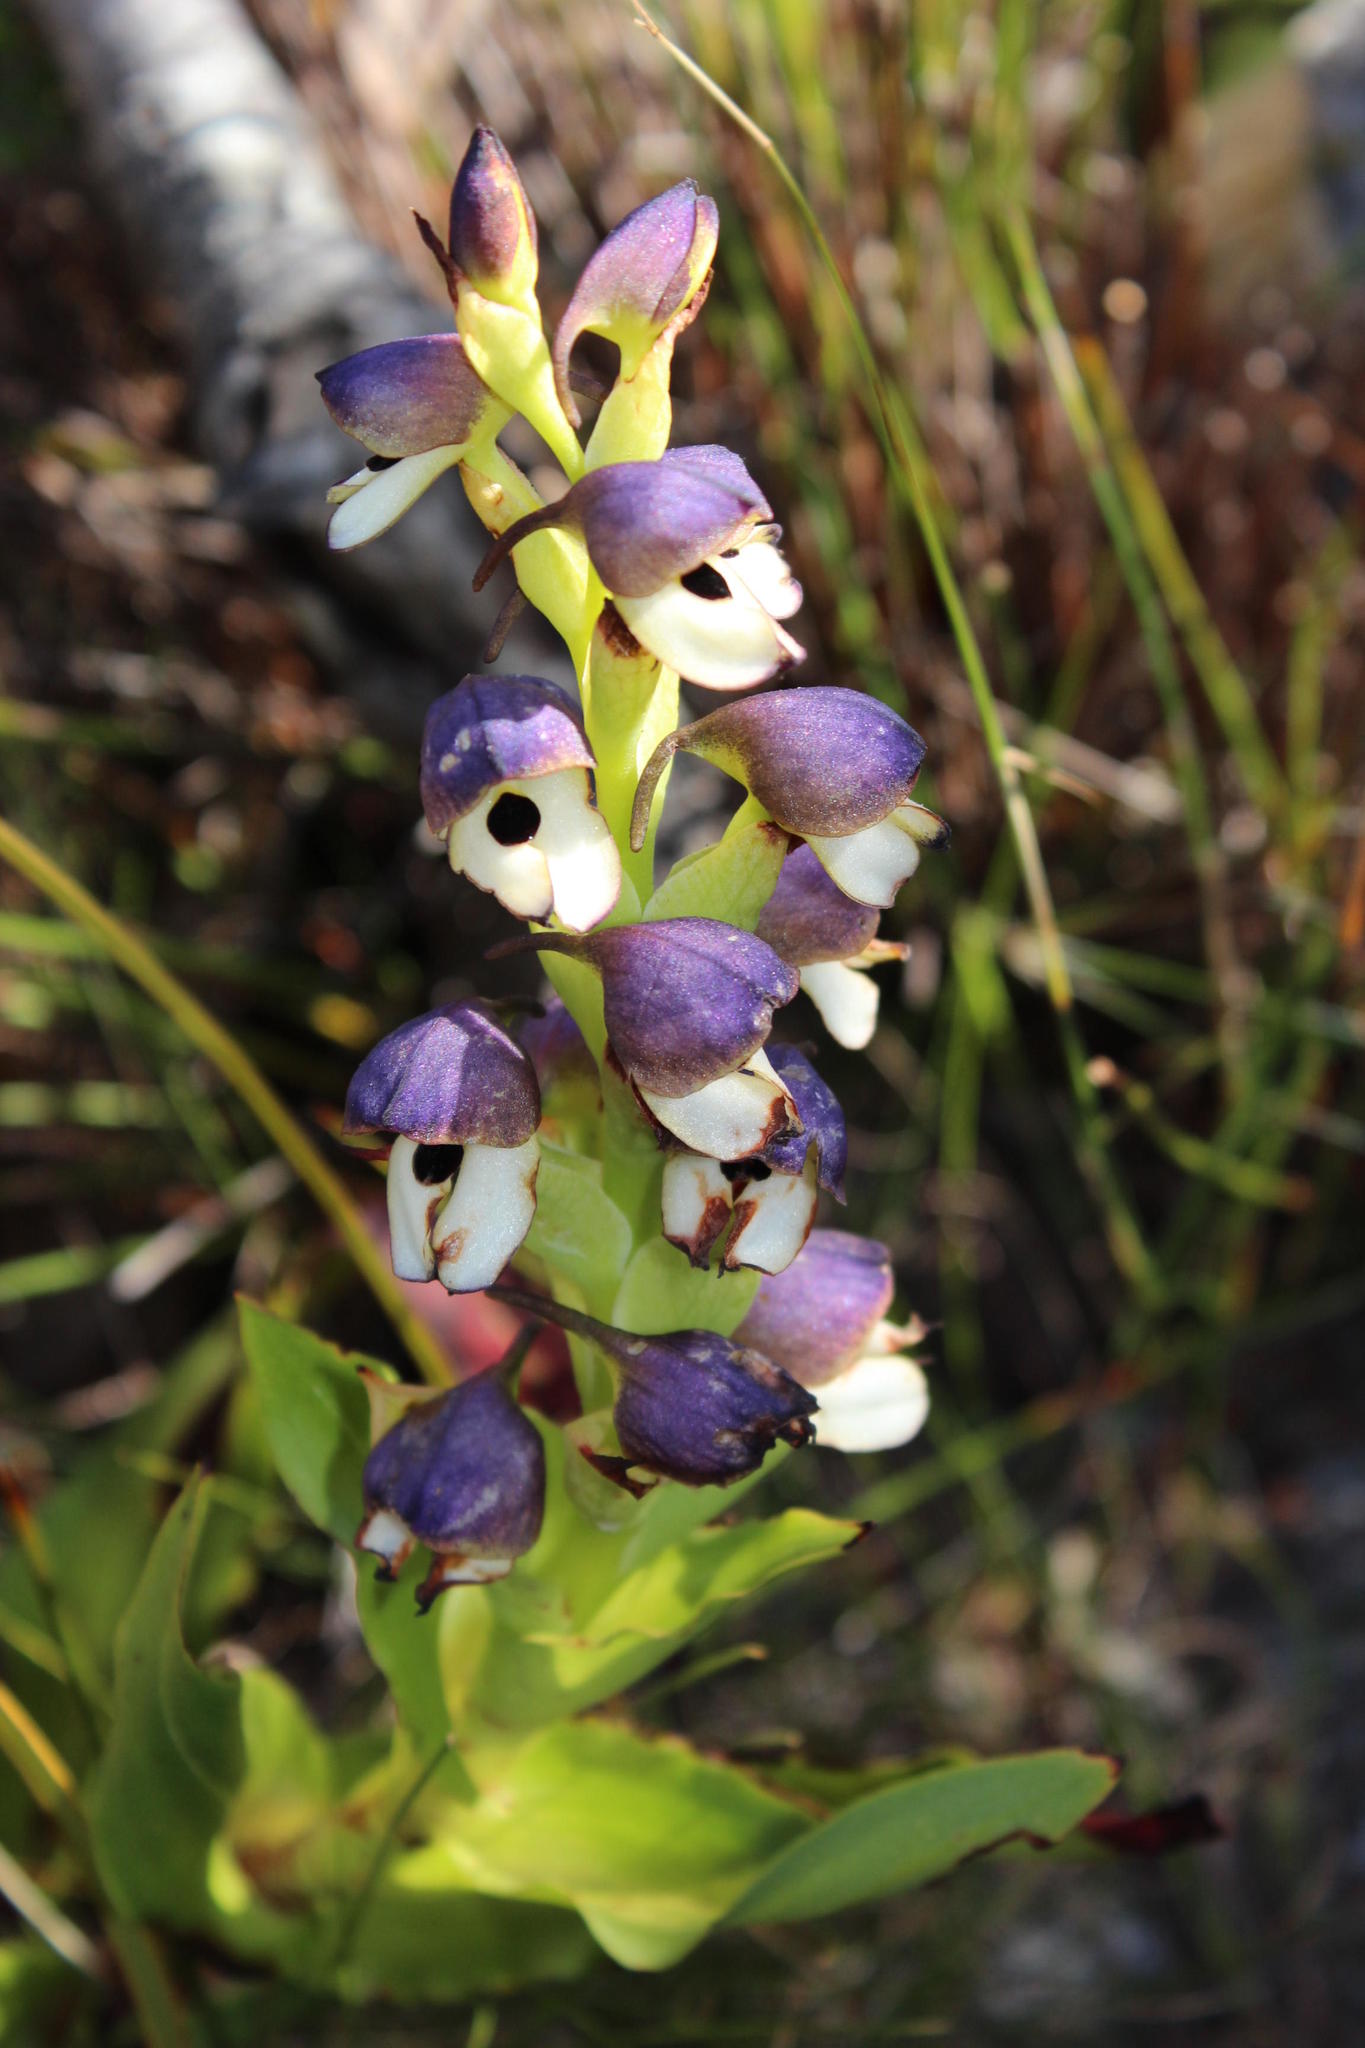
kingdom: Plantae
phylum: Tracheophyta
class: Liliopsida
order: Asparagales
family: Orchidaceae
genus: Disa
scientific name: Disa cornuta
